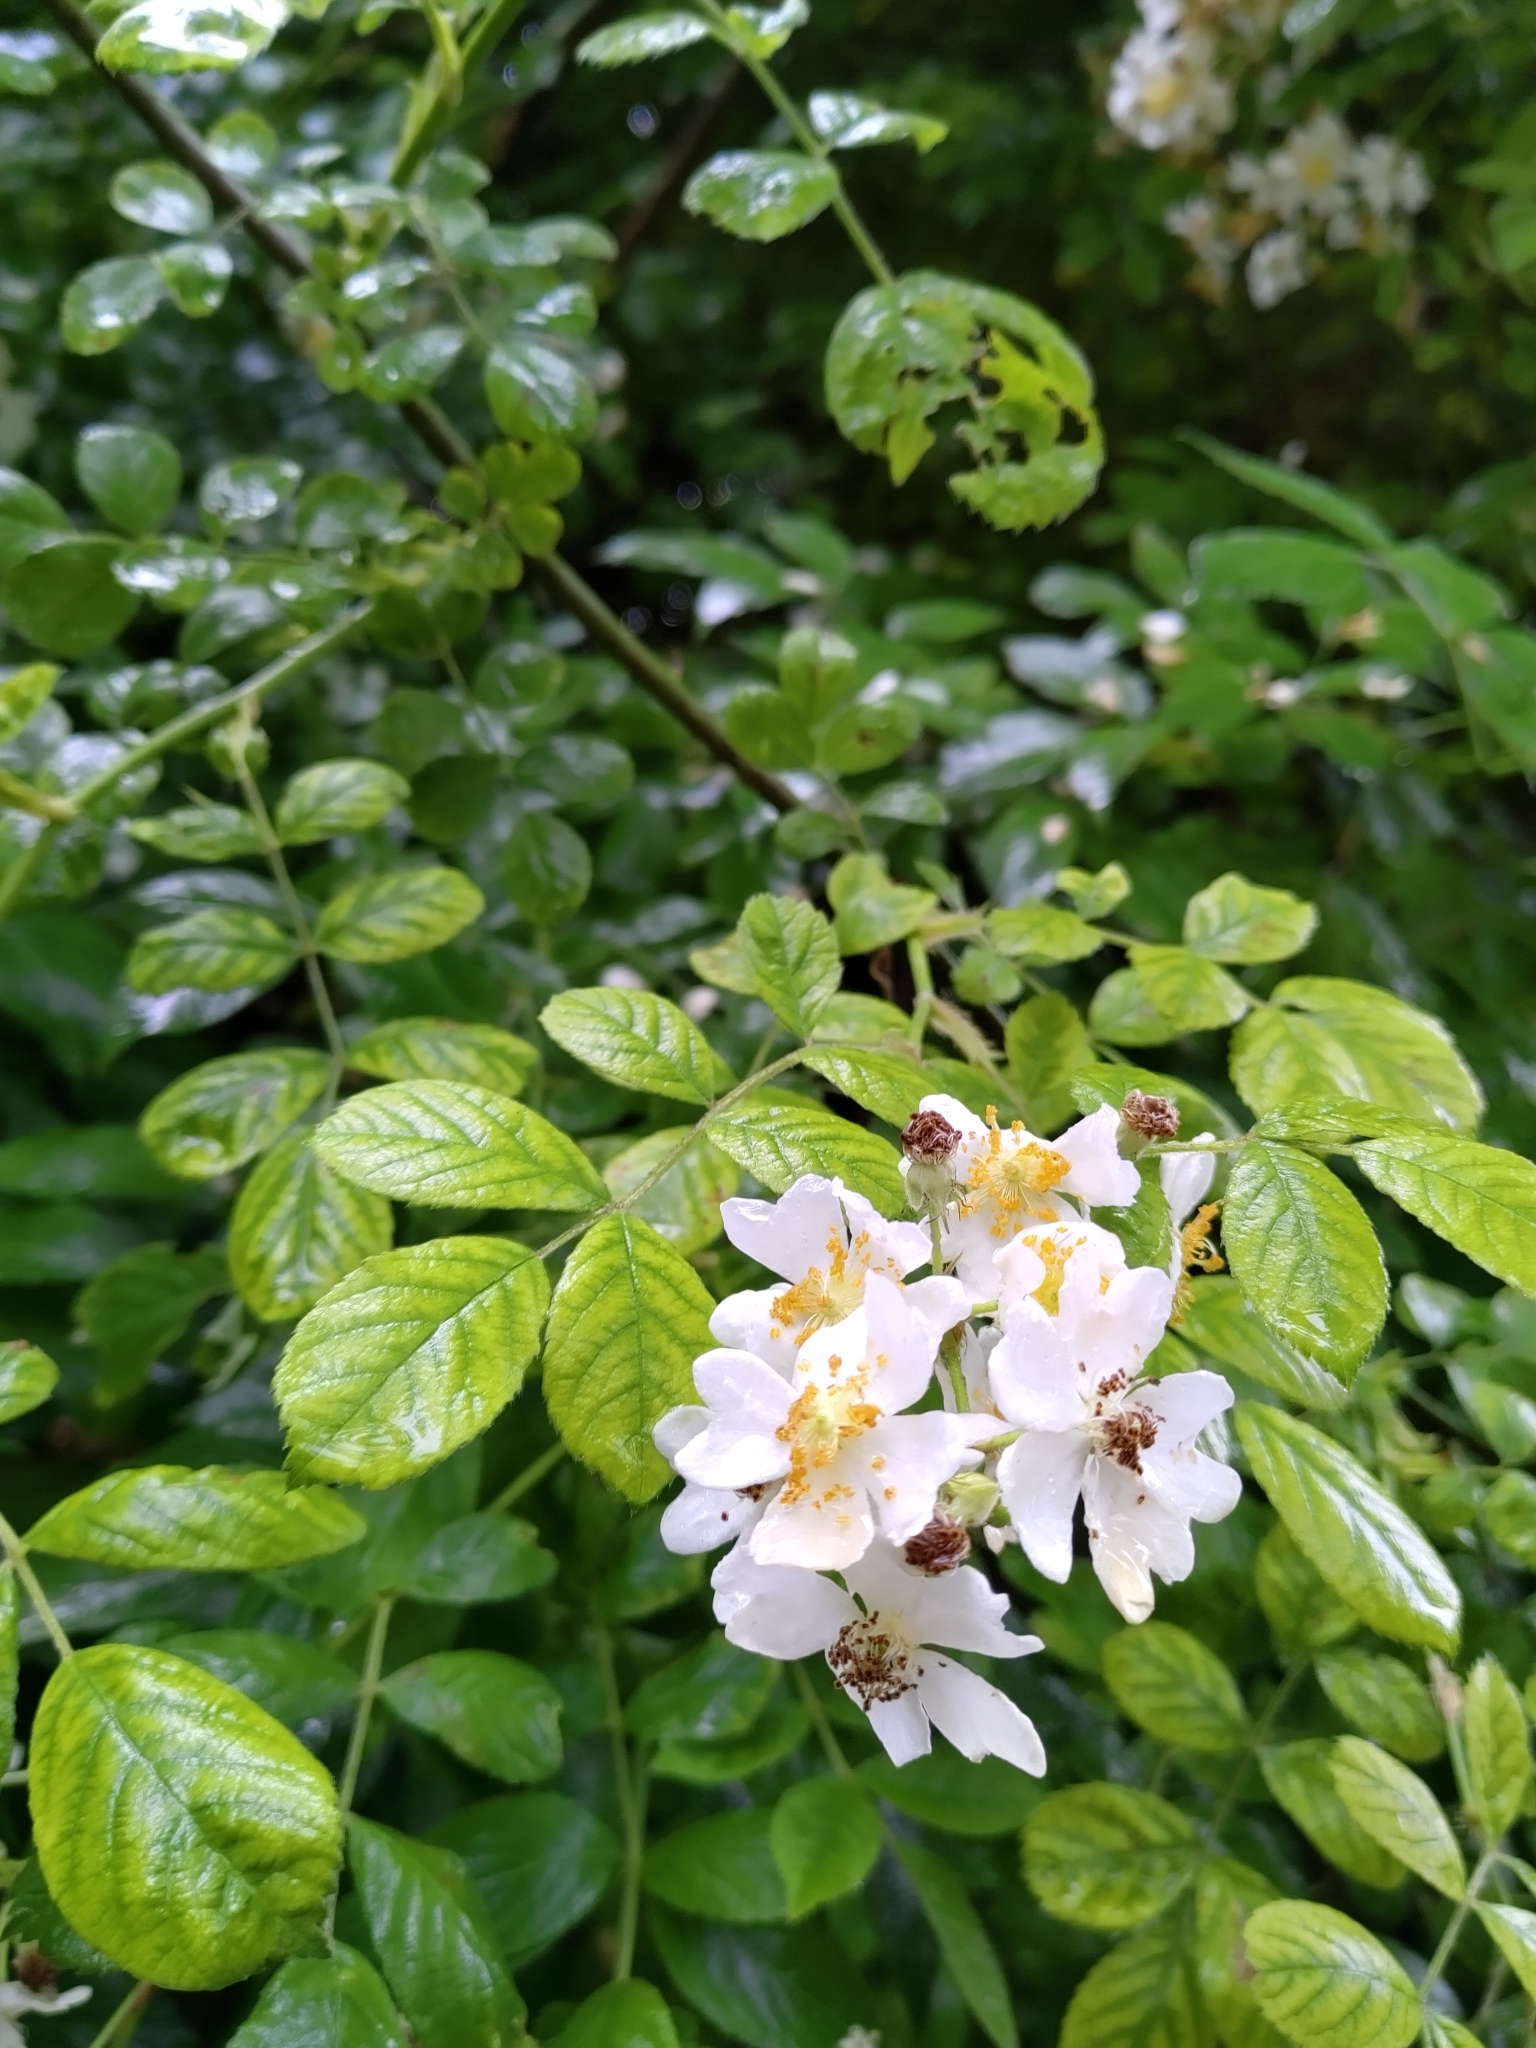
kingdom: Plantae
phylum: Tracheophyta
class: Magnoliopsida
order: Rosales
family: Rosaceae
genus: Rosa
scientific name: Rosa multiflora
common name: Multiflora rose
